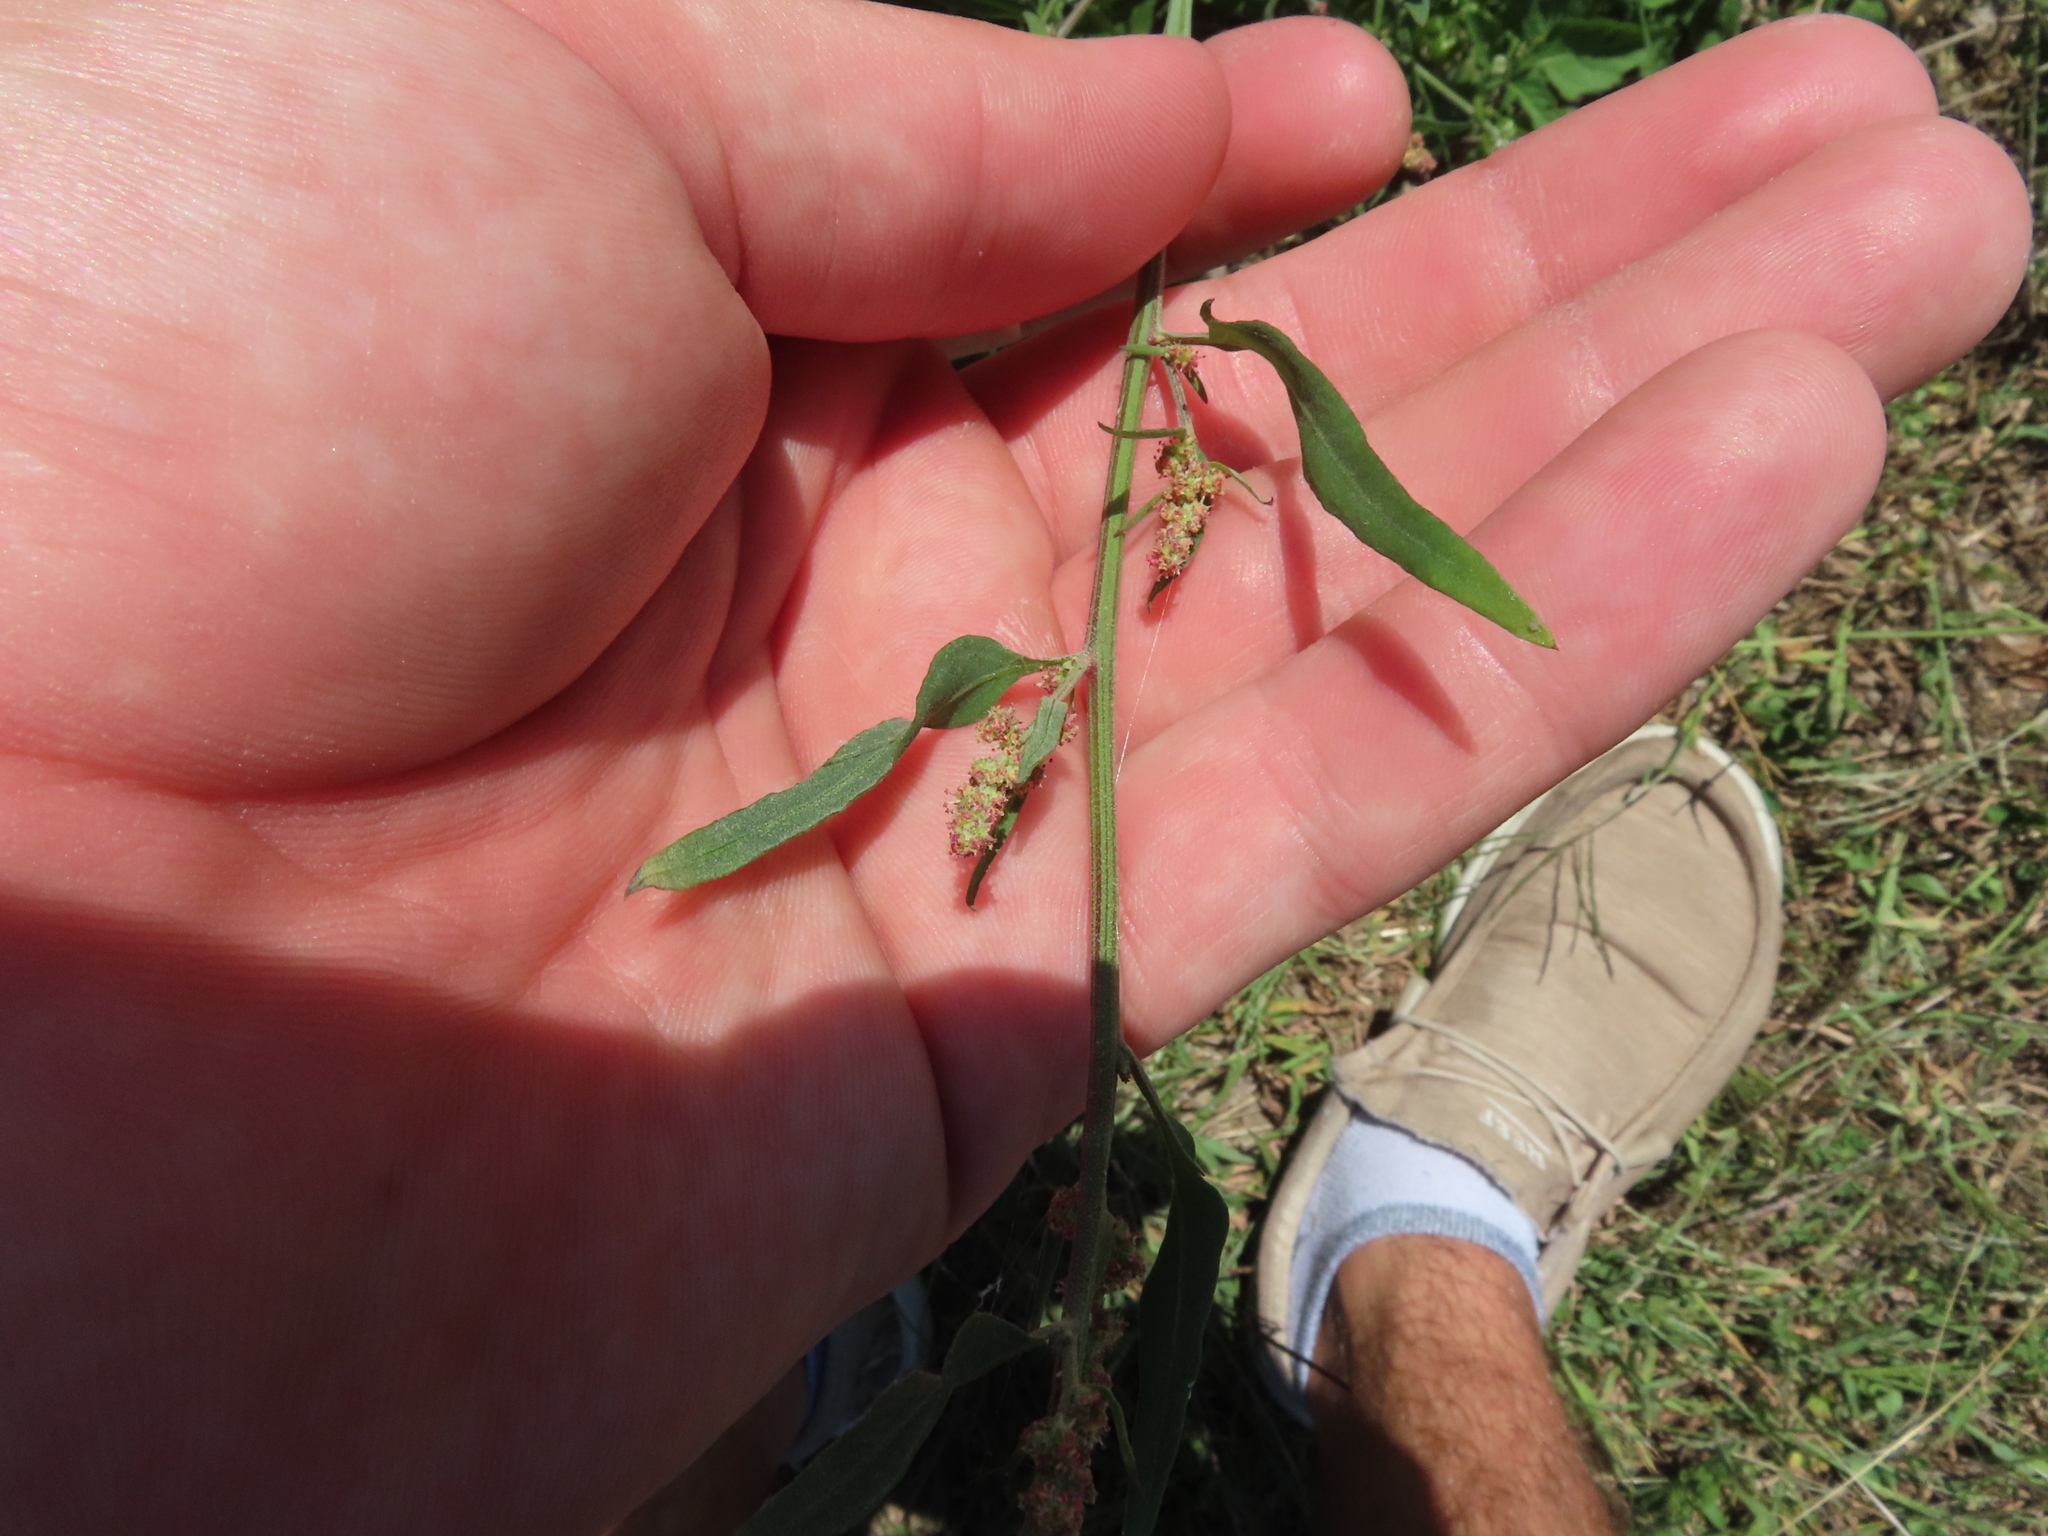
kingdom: Plantae
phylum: Tracheophyta
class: Magnoliopsida
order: Caryophyllales
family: Amaranthaceae
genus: Atriplex
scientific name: Atriplex patula
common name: Common orache
